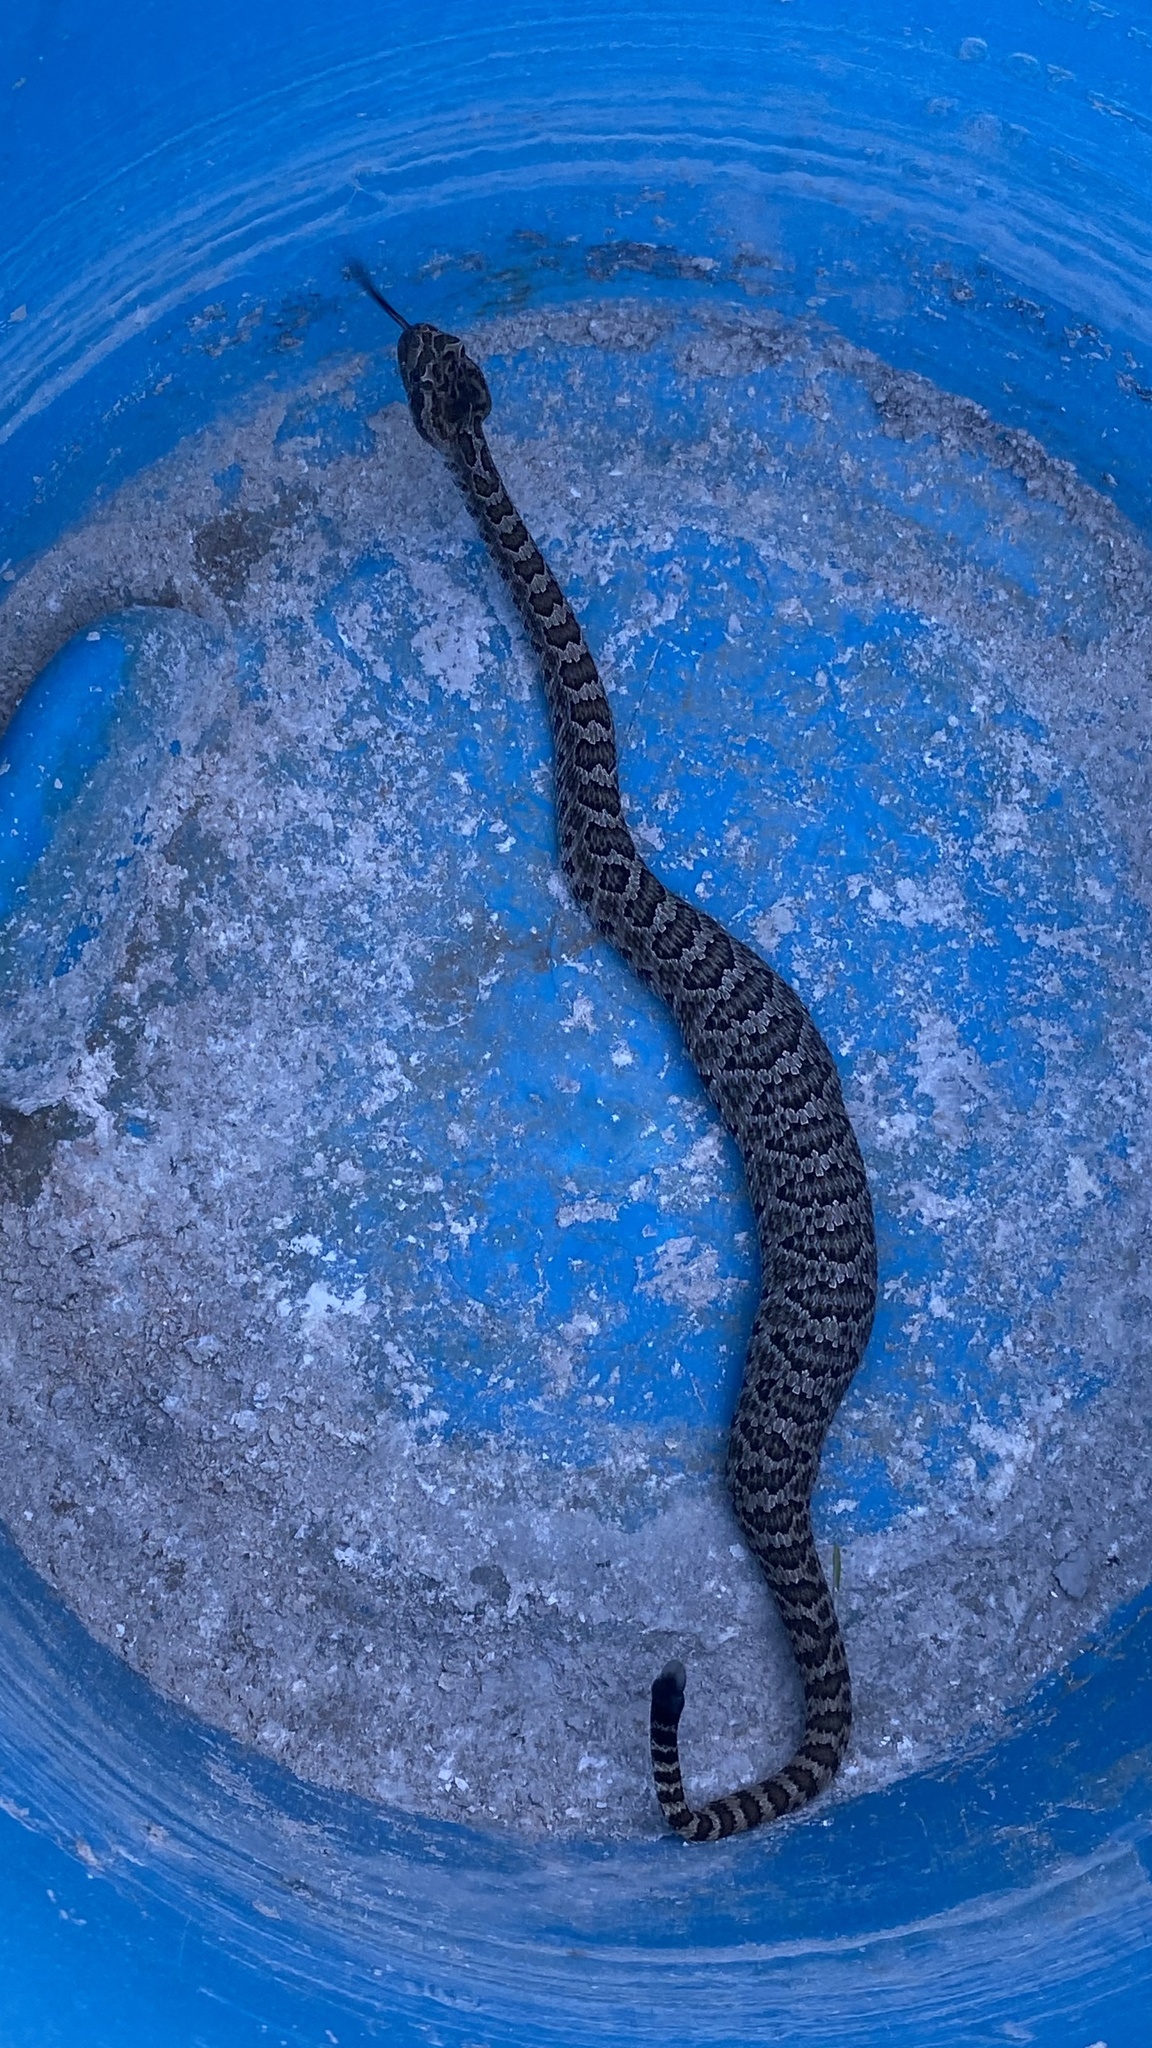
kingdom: Animalia
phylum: Chordata
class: Squamata
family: Viperidae
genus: Crotalus
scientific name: Crotalus oreganus
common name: Abyssus
